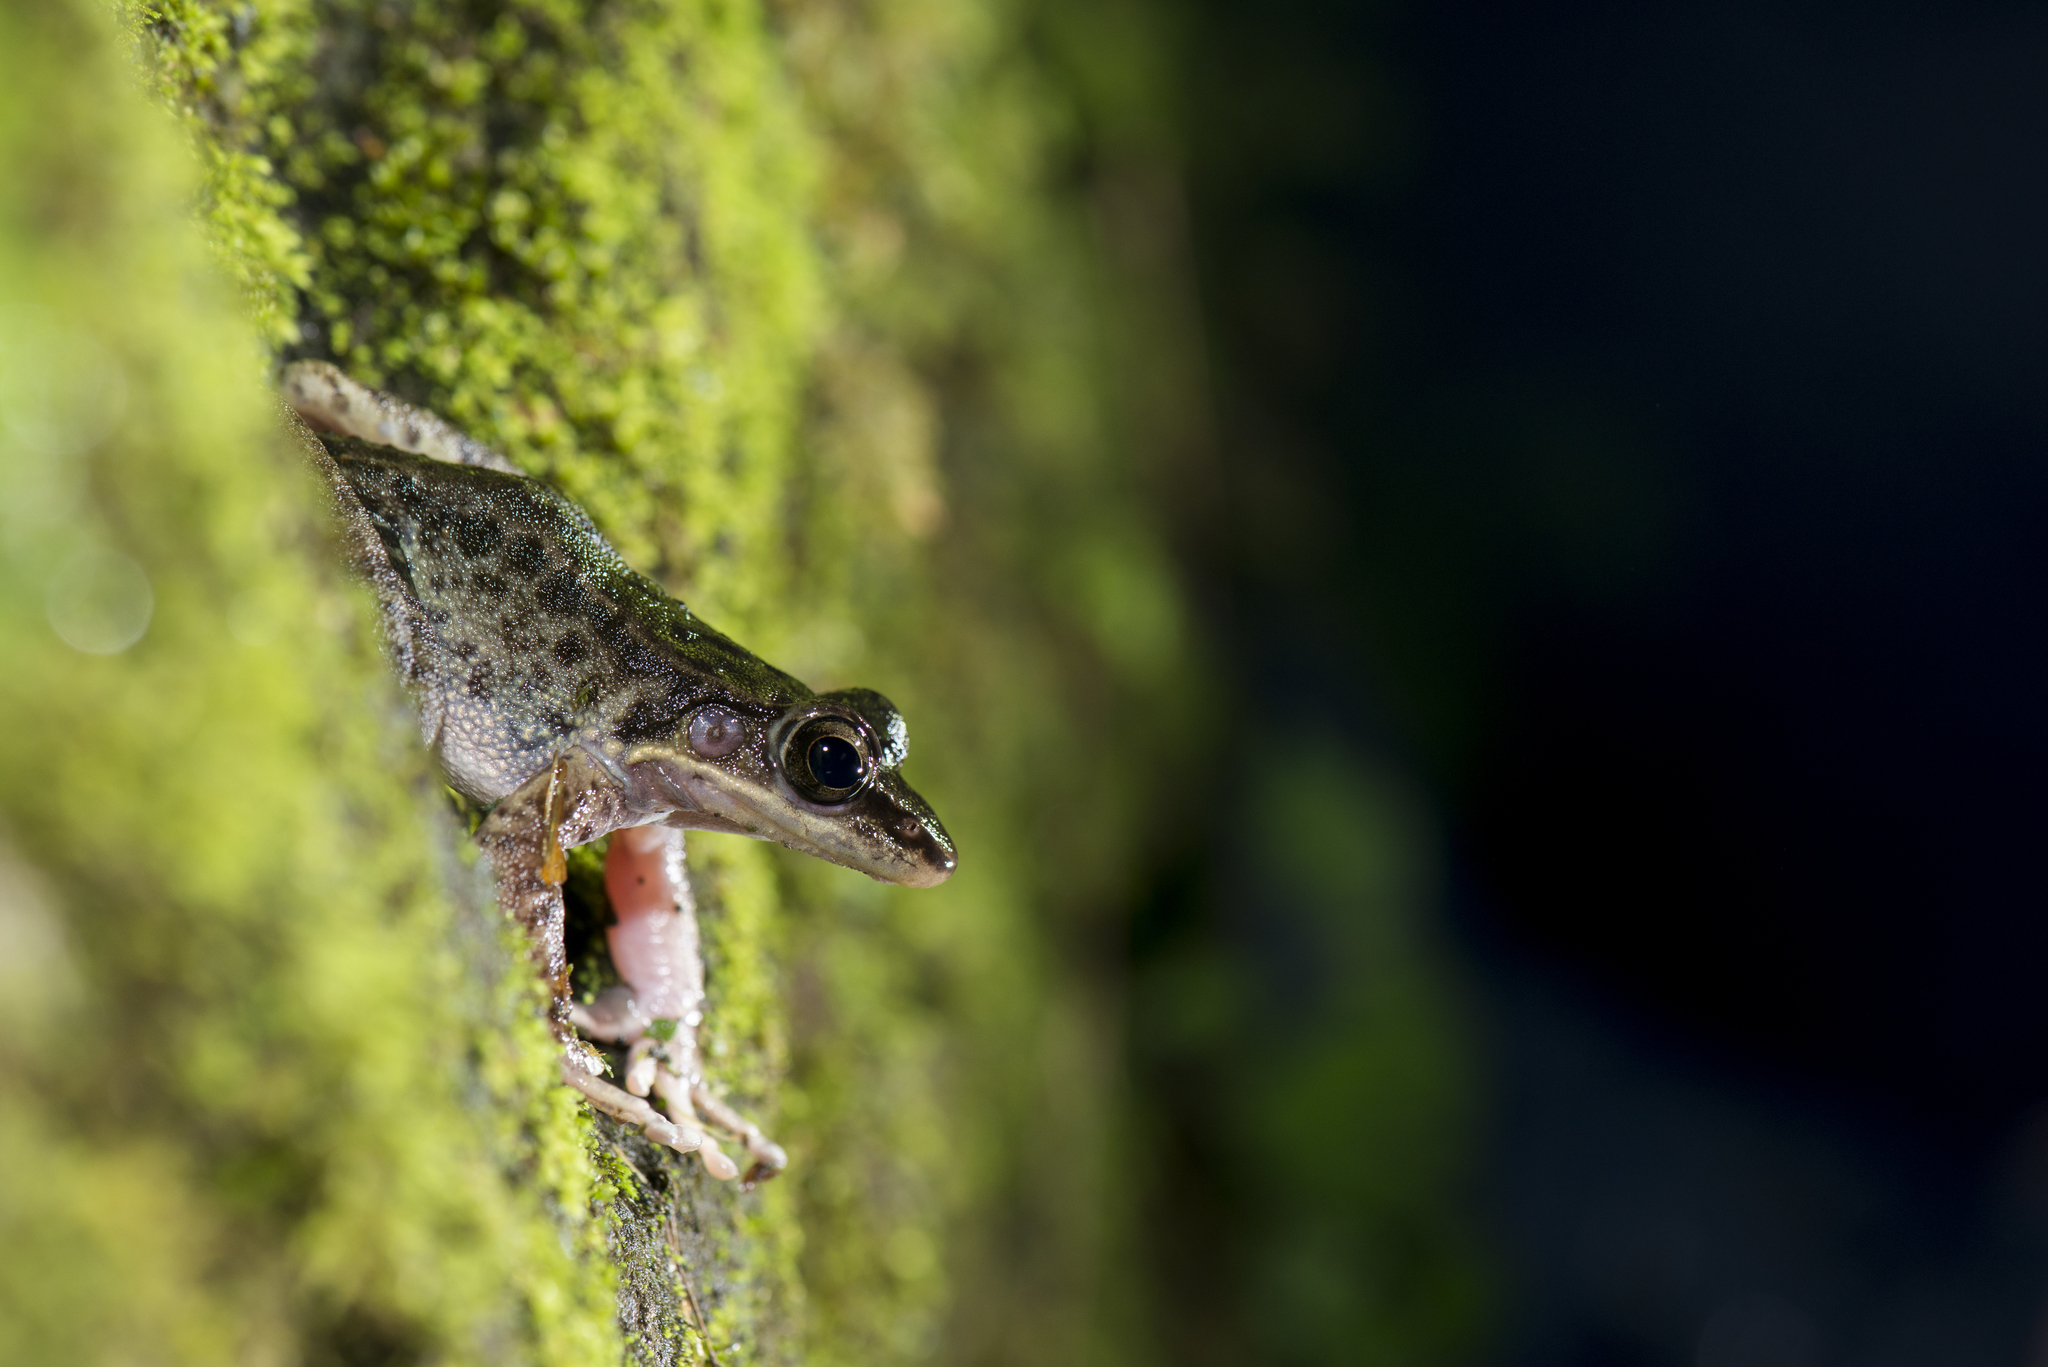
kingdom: Animalia
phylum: Chordata
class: Amphibia
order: Anura
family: Ranidae
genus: Odorrana
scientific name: Odorrana swinhoana
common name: Bangkimtsing frog
